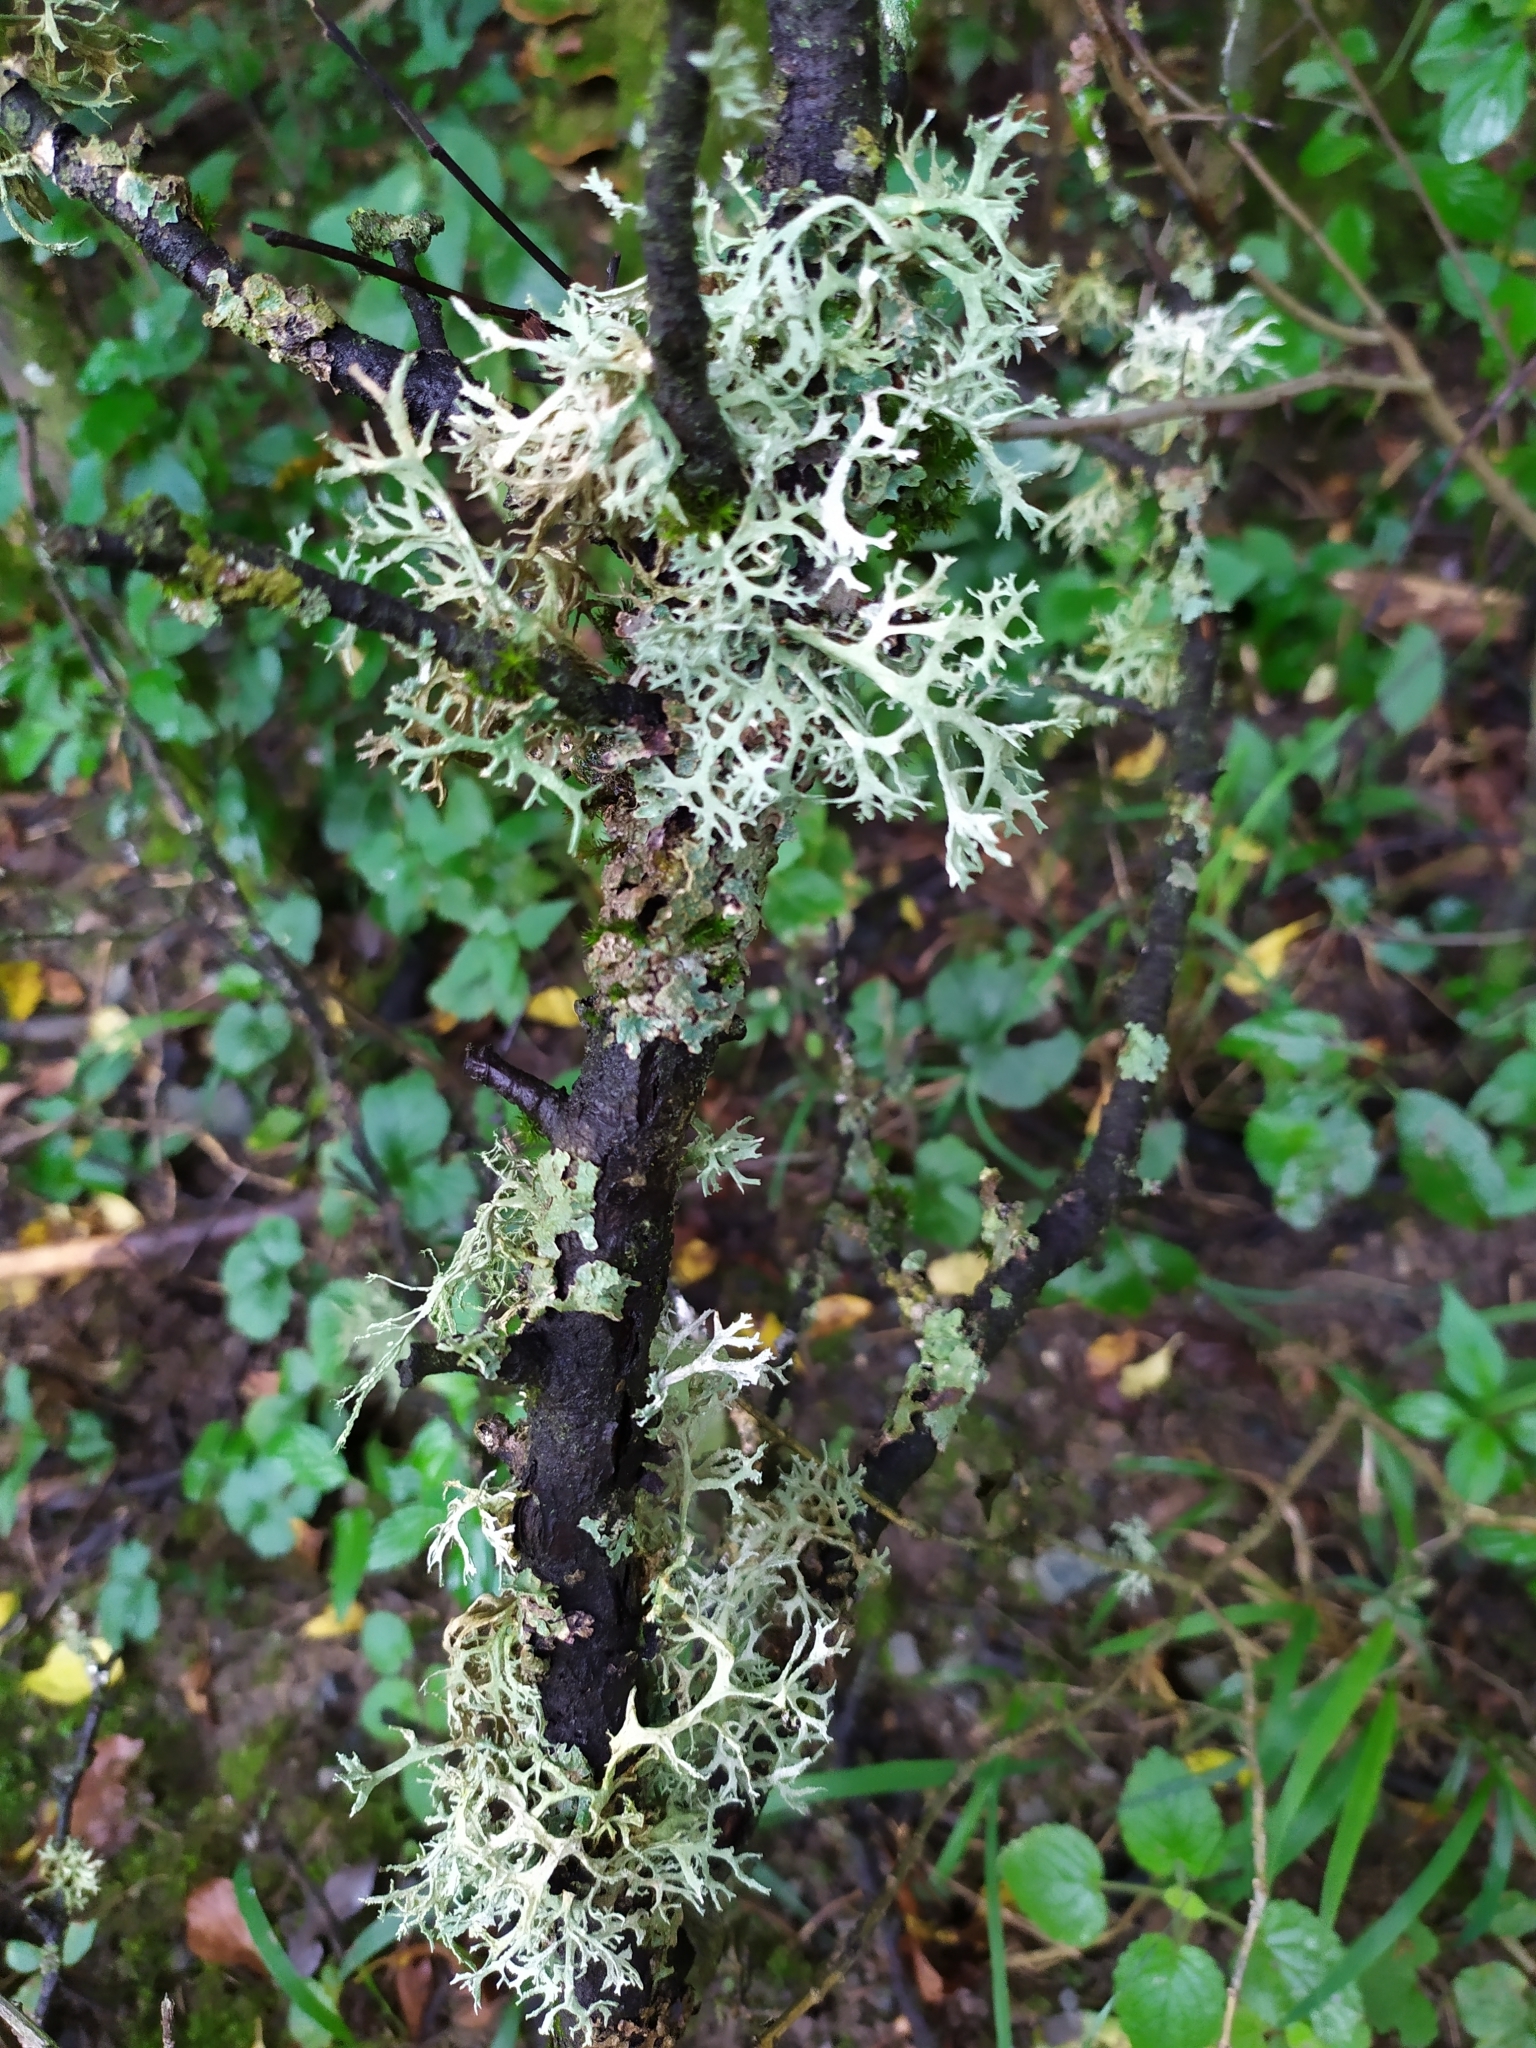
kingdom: Fungi
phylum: Ascomycota
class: Lecanoromycetes
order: Lecanorales
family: Parmeliaceae
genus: Evernia
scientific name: Evernia prunastri
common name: Oak moss
